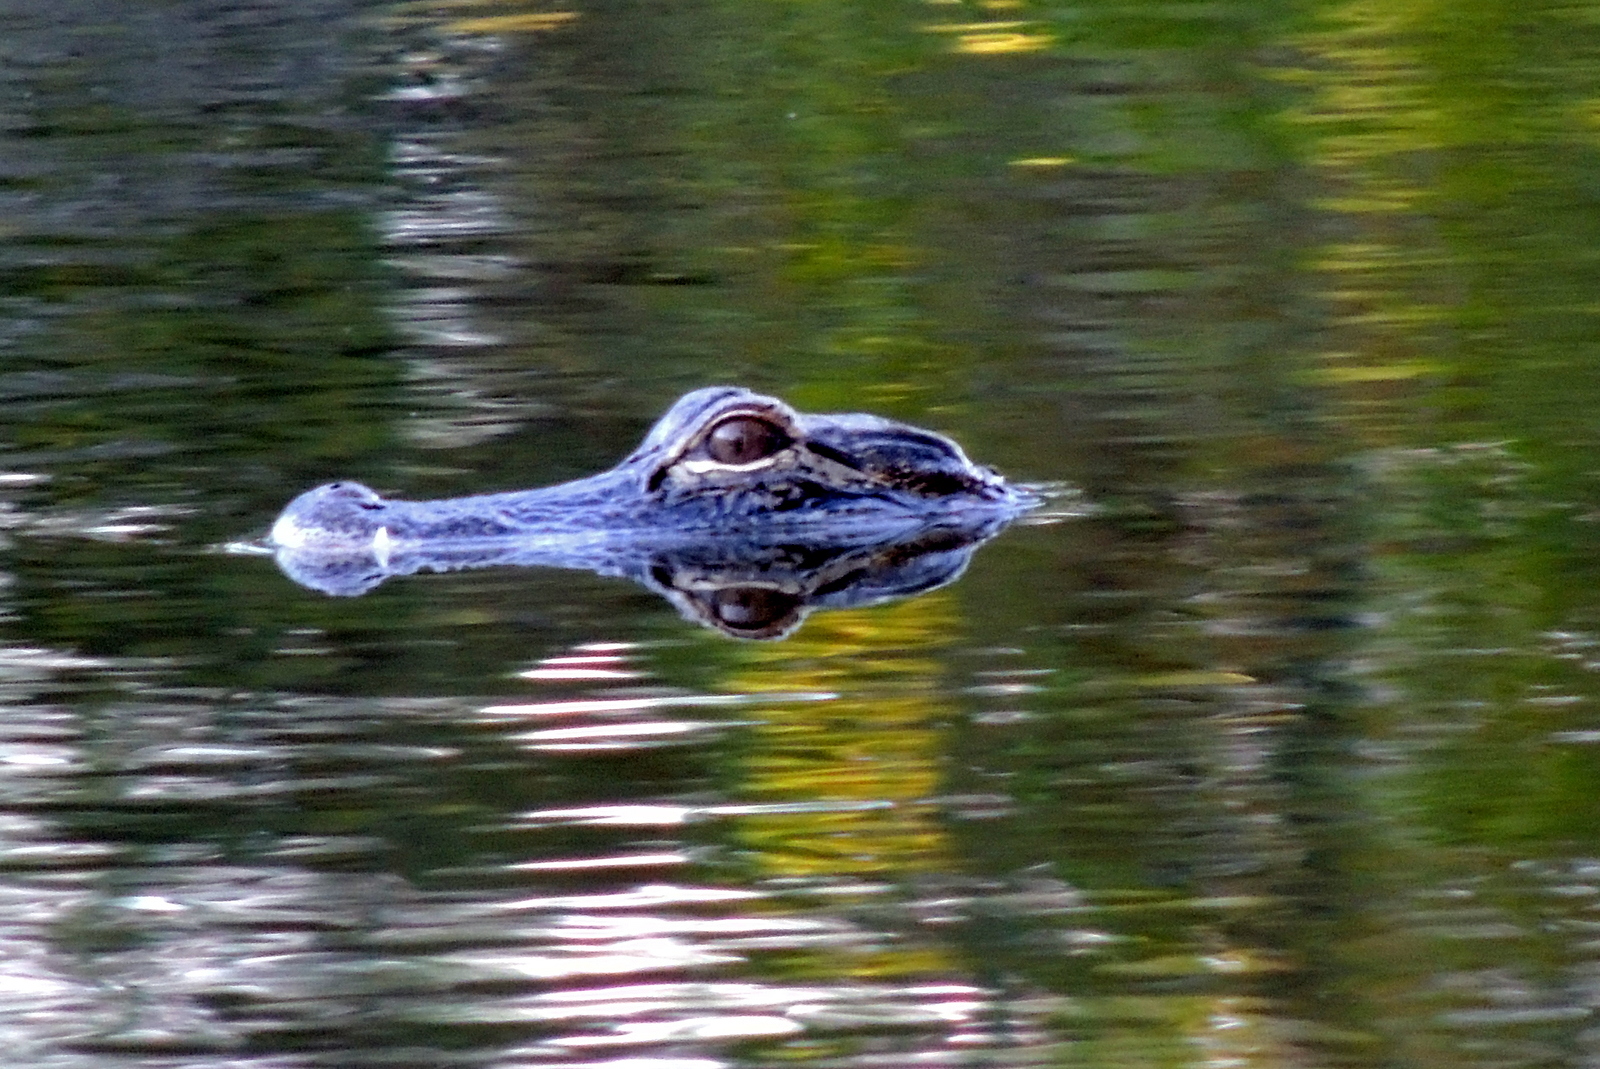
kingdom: Animalia
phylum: Chordata
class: Crocodylia
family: Alligatoridae
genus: Alligator
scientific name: Alligator mississippiensis
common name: American alligator
